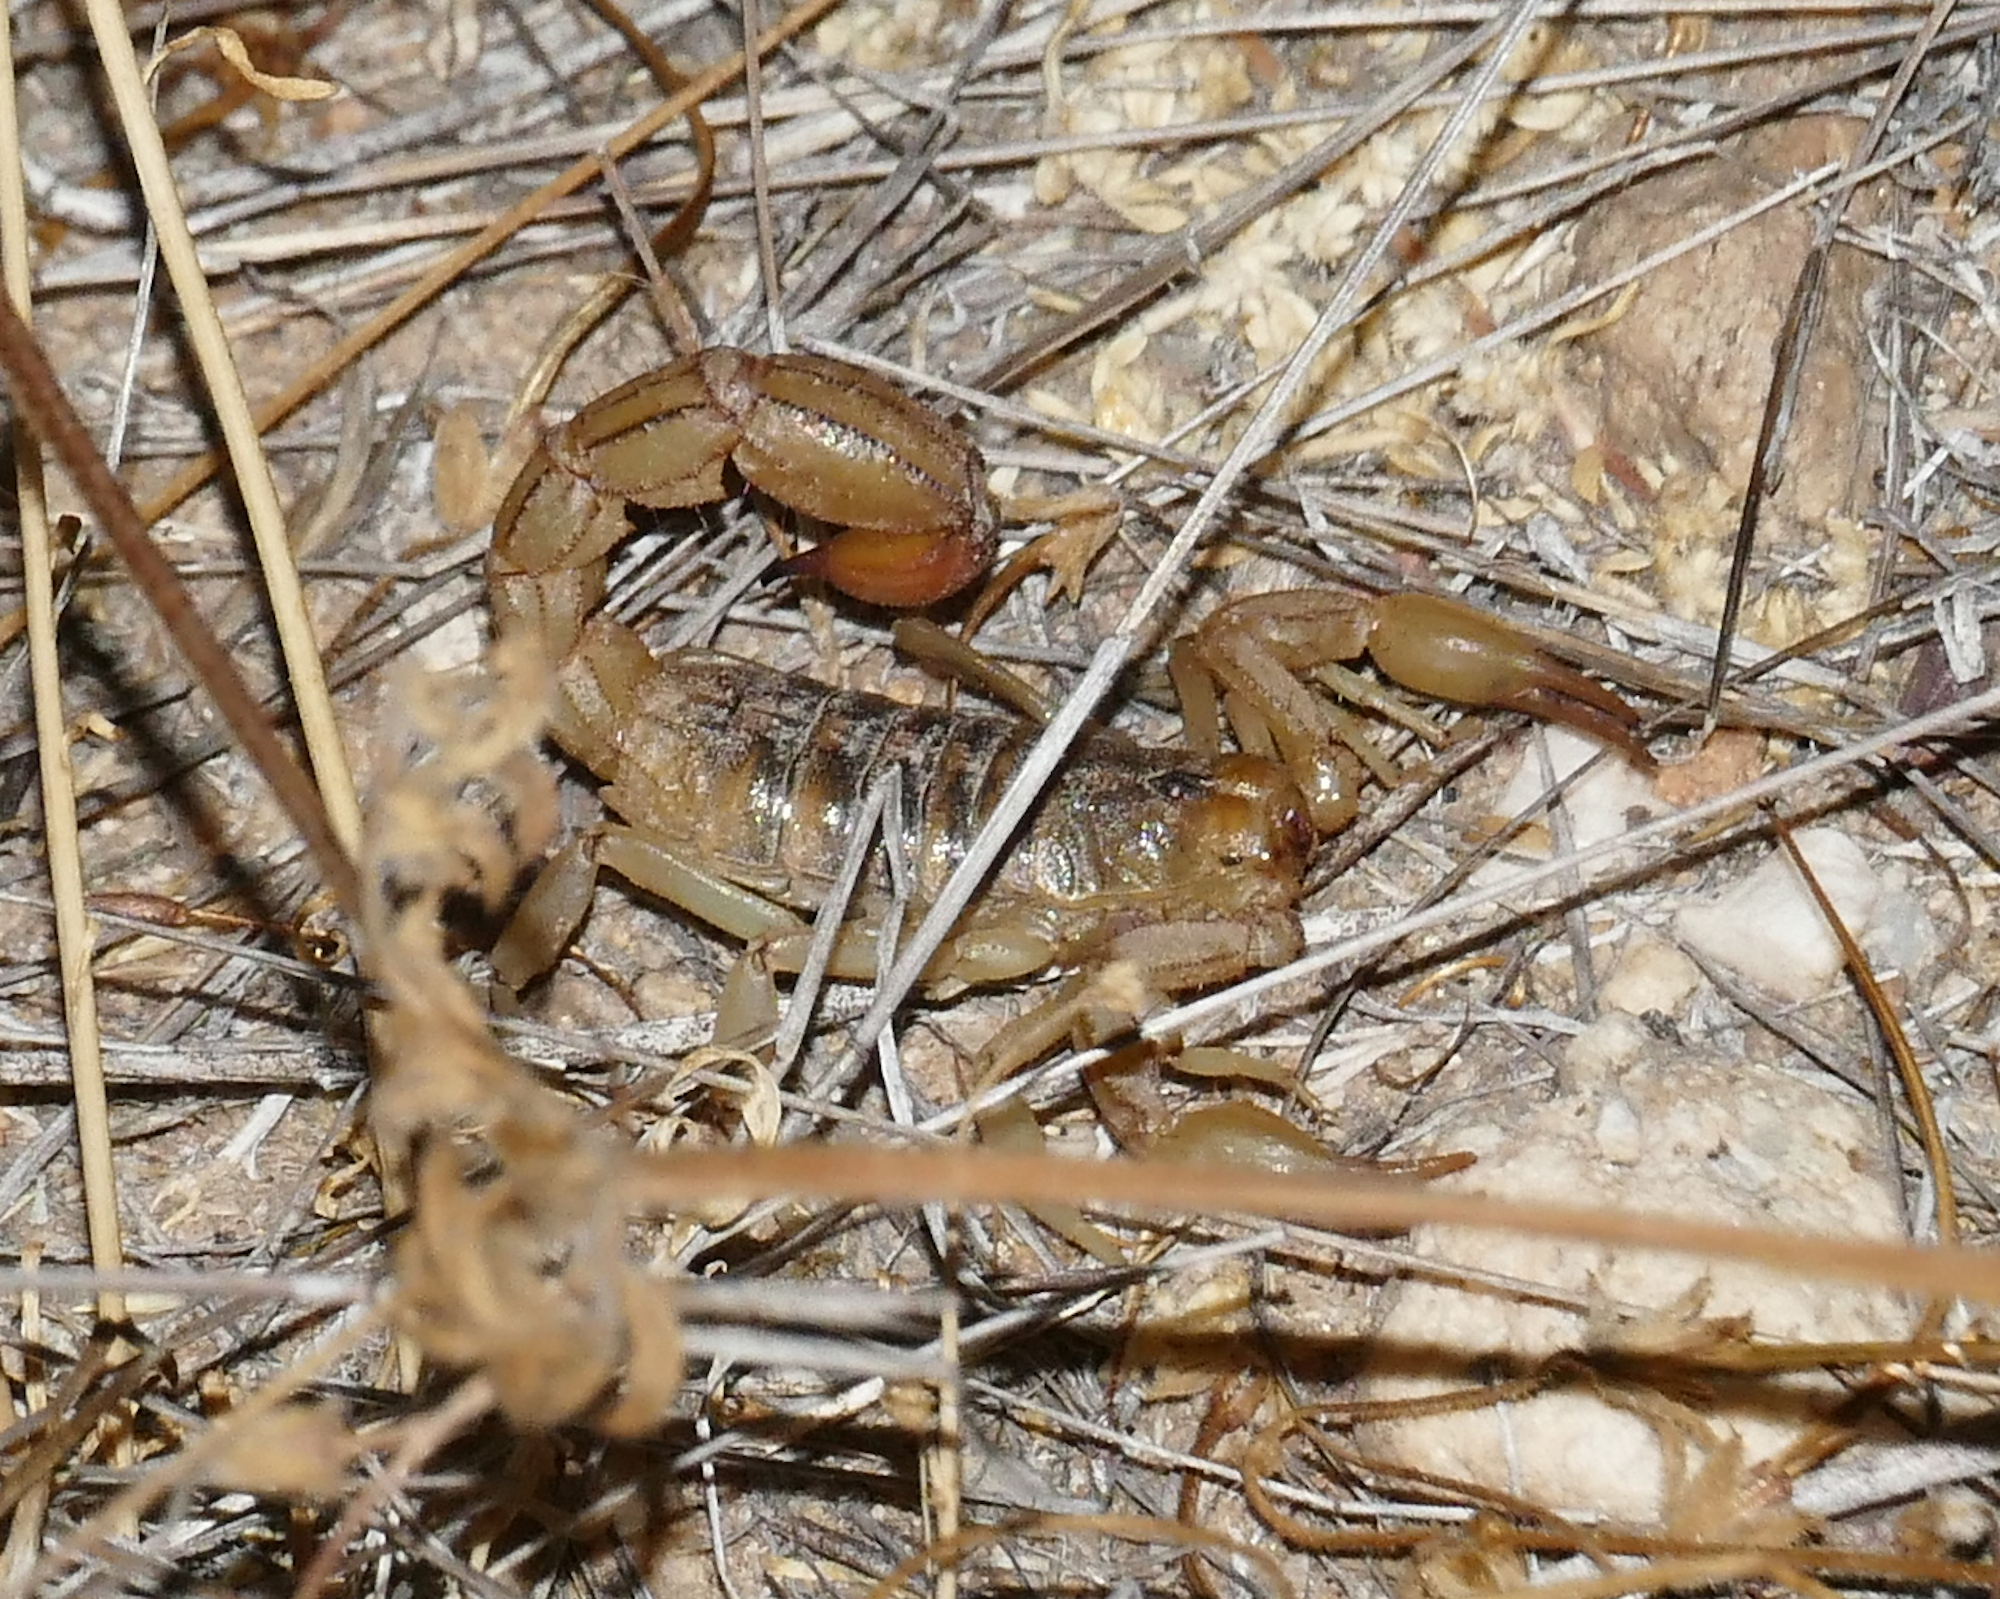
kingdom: Animalia
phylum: Arthropoda
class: Arachnida
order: Scorpiones
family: Vaejovidae
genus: Paravaejovis
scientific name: Paravaejovis spinigerus
